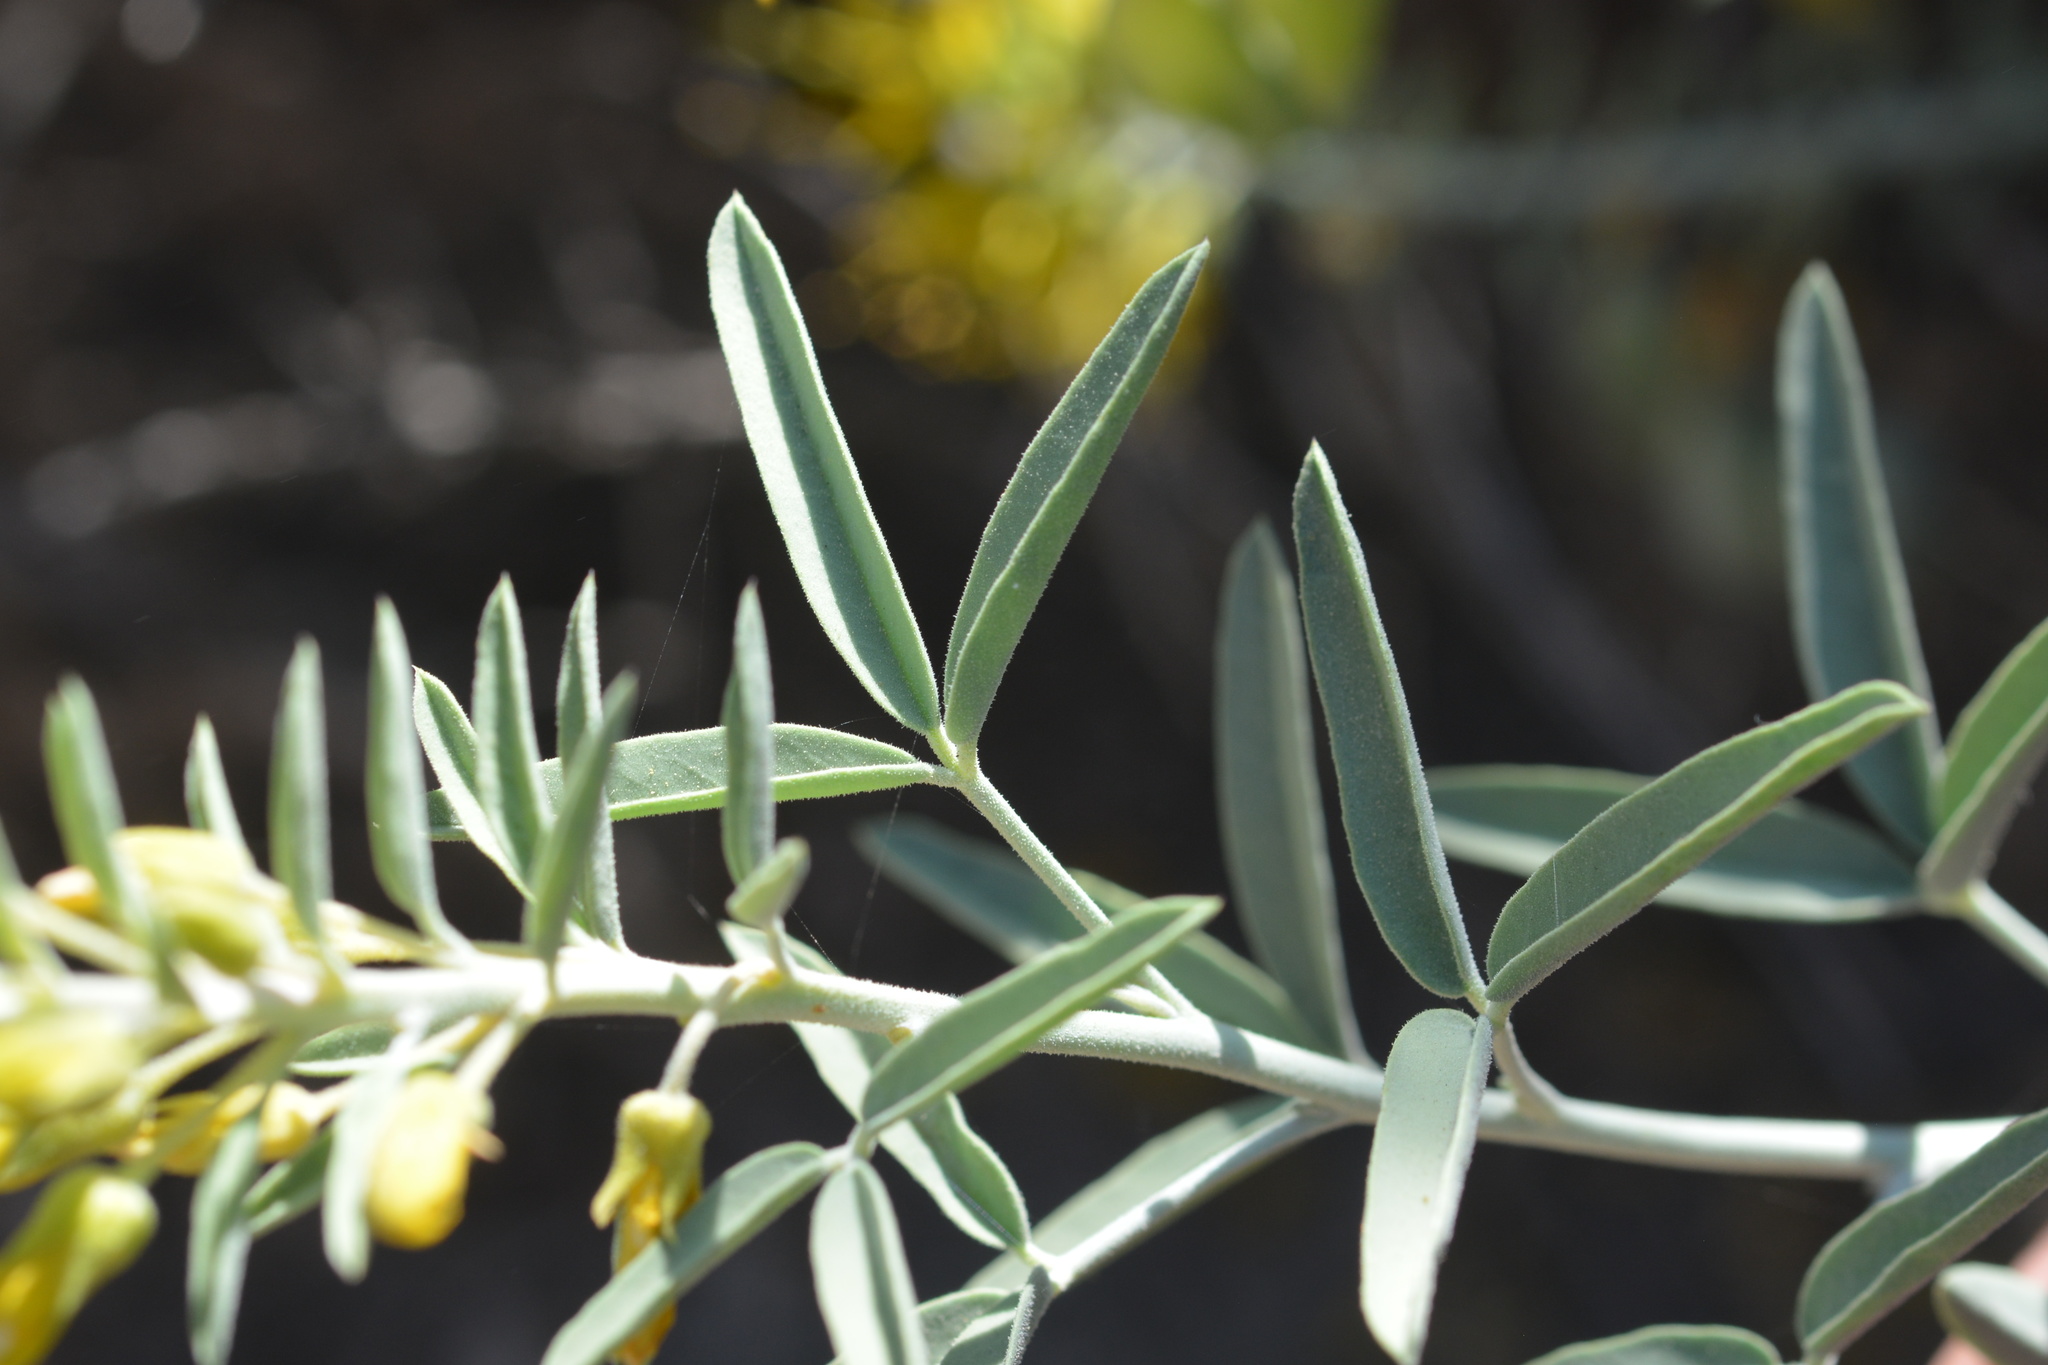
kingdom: Plantae
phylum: Tracheophyta
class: Magnoliopsida
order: Brassicales
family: Cleomaceae
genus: Cleomella
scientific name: Cleomella arborea
